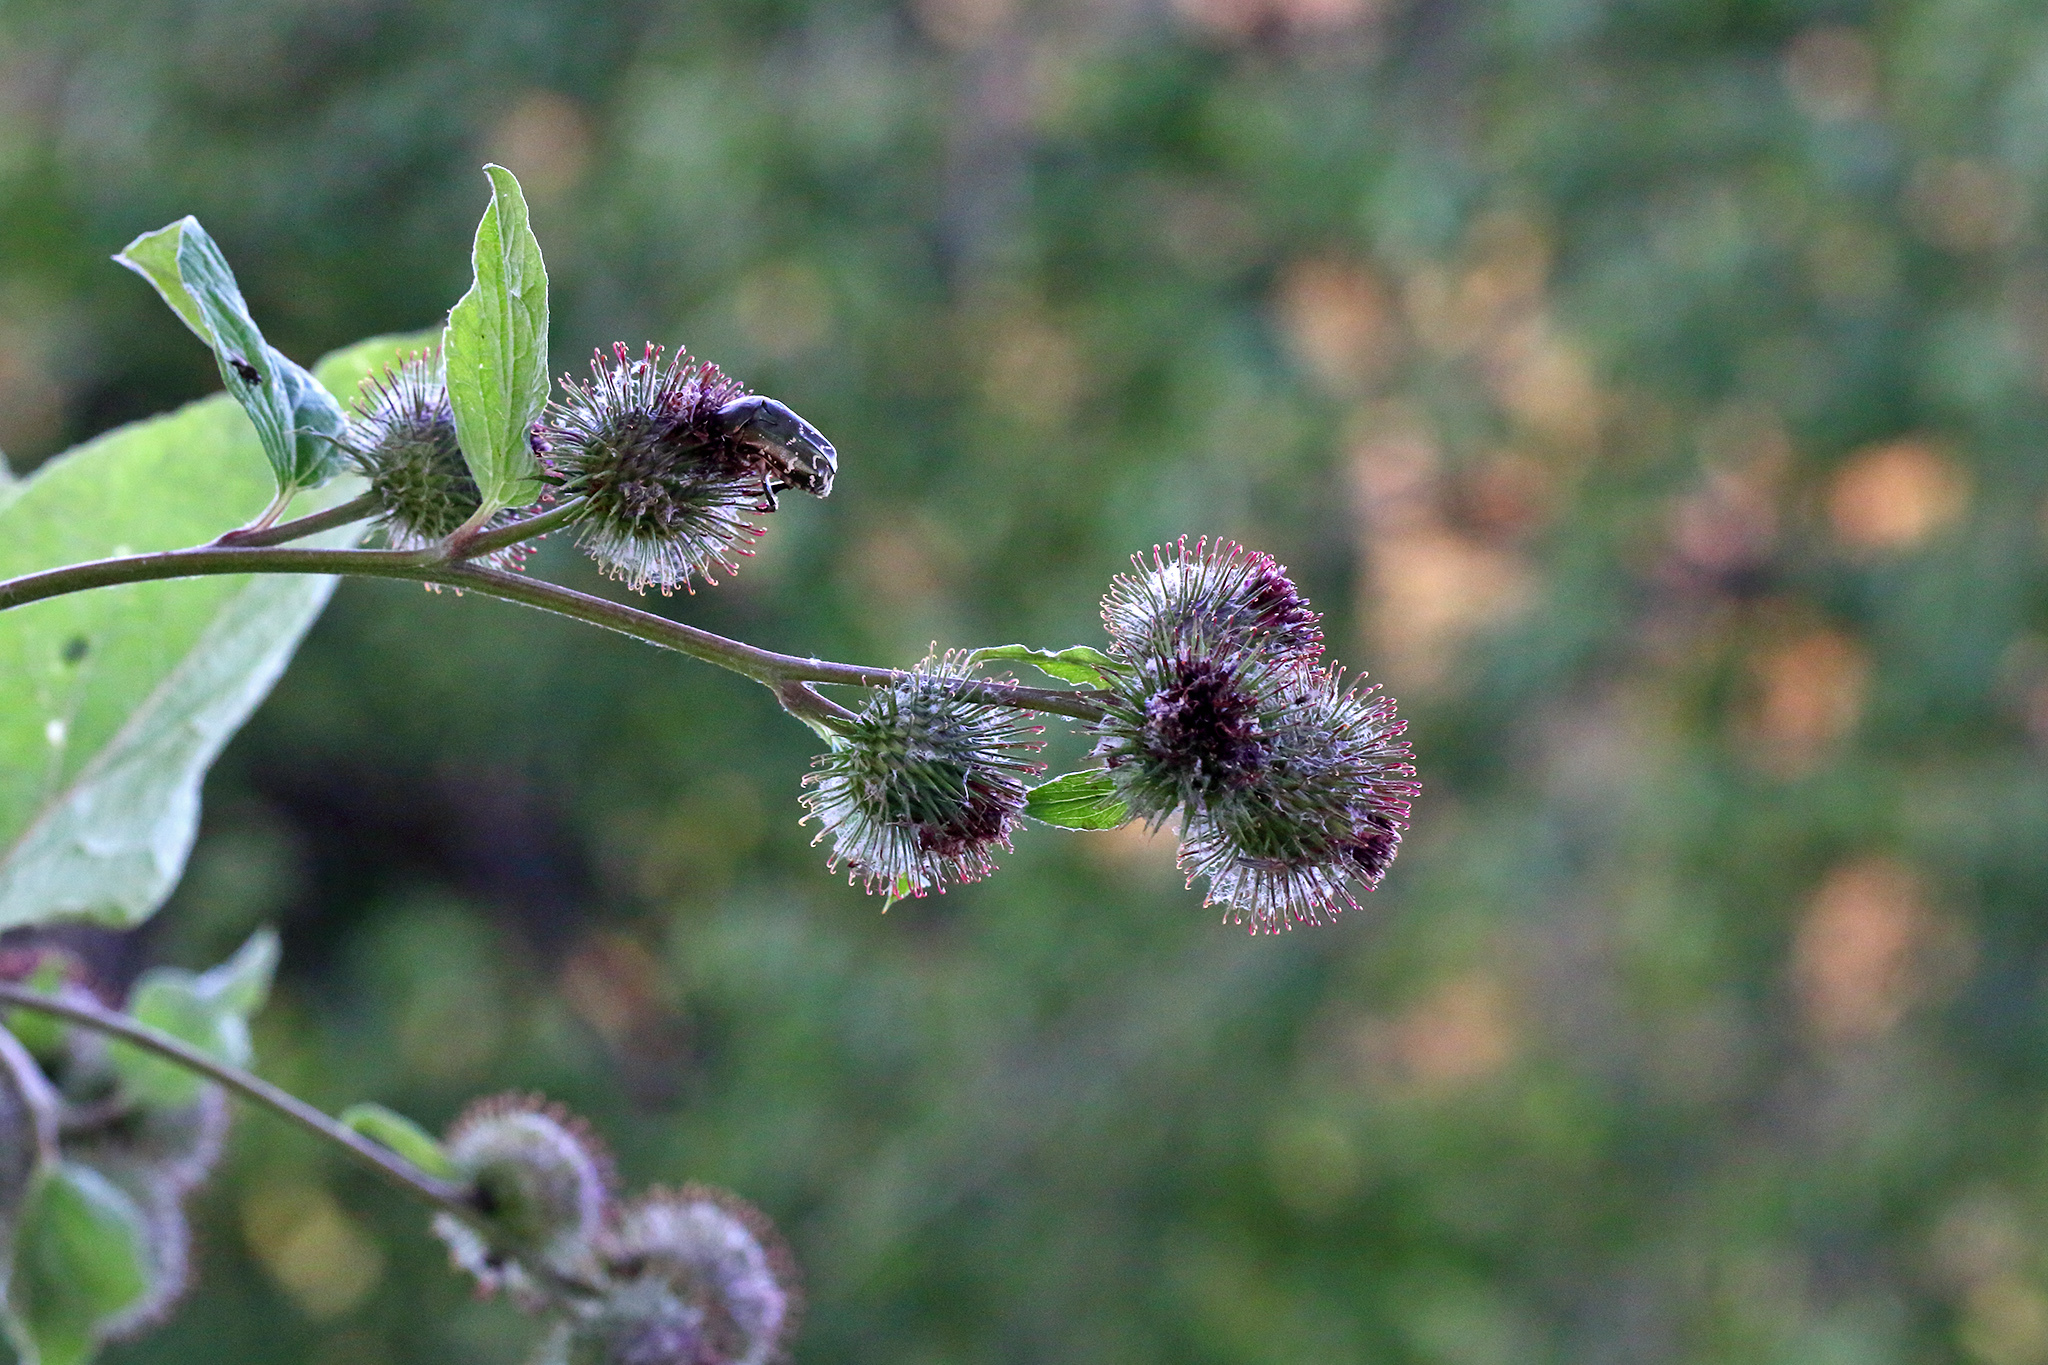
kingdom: Plantae
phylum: Tracheophyta
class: Magnoliopsida
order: Asterales
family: Asteraceae
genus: Arctium
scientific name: Arctium tomentosum
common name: Woolly burdock
